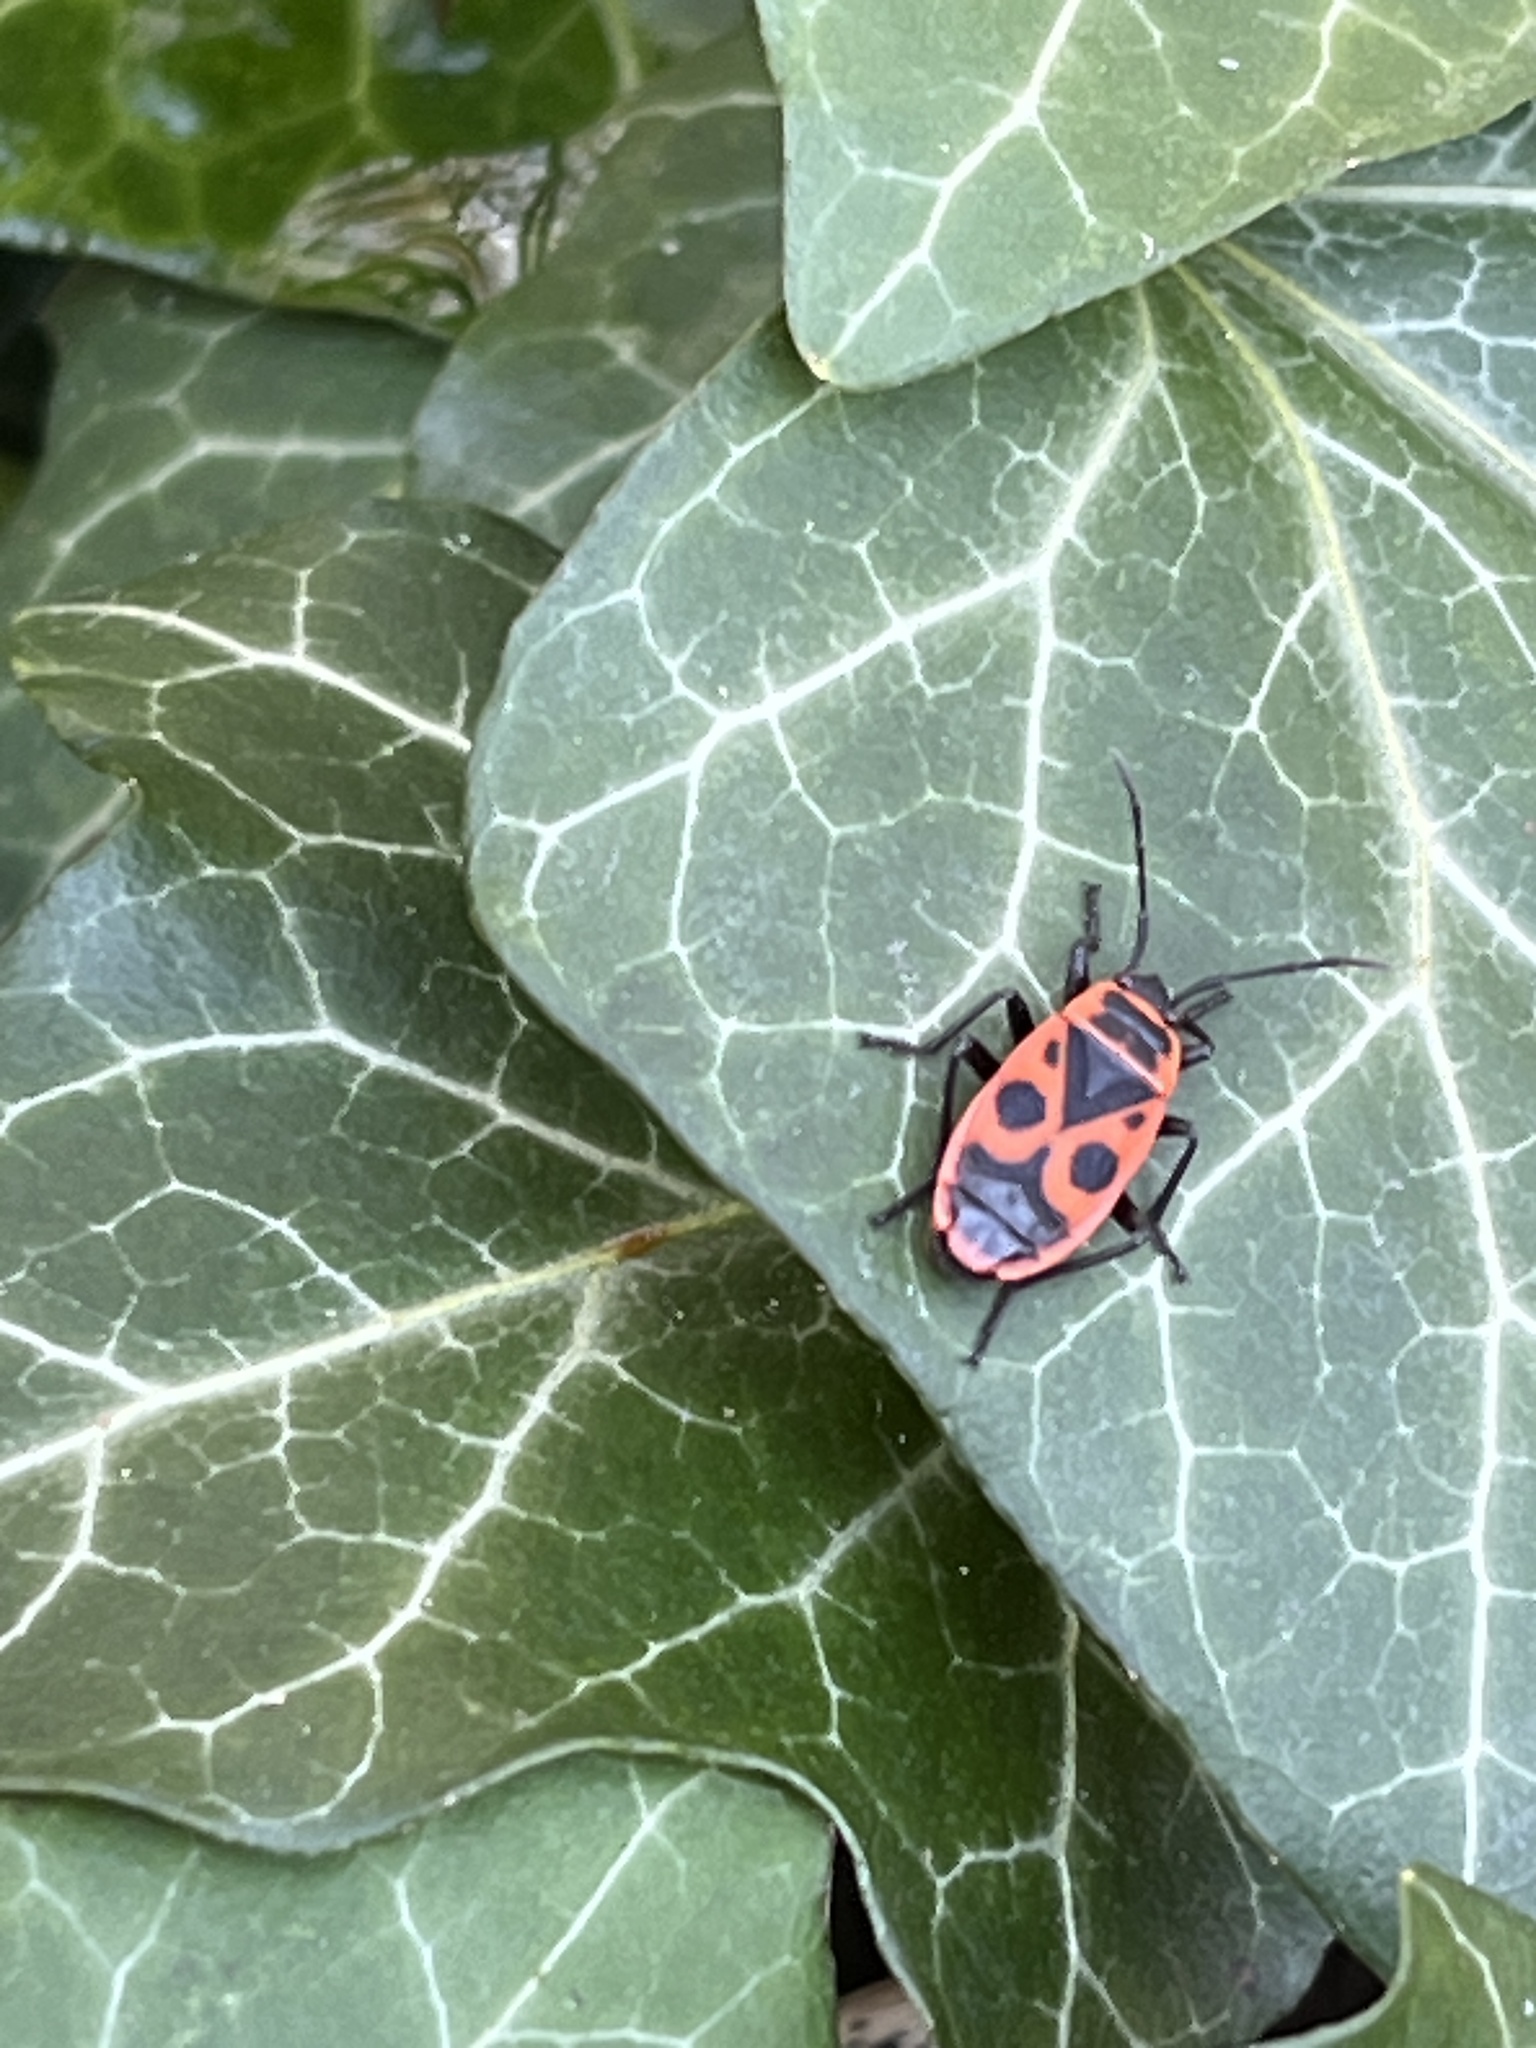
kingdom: Animalia
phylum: Arthropoda
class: Insecta
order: Hemiptera
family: Pyrrhocoridae
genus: Pyrrhocoris
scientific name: Pyrrhocoris apterus
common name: Firebug
